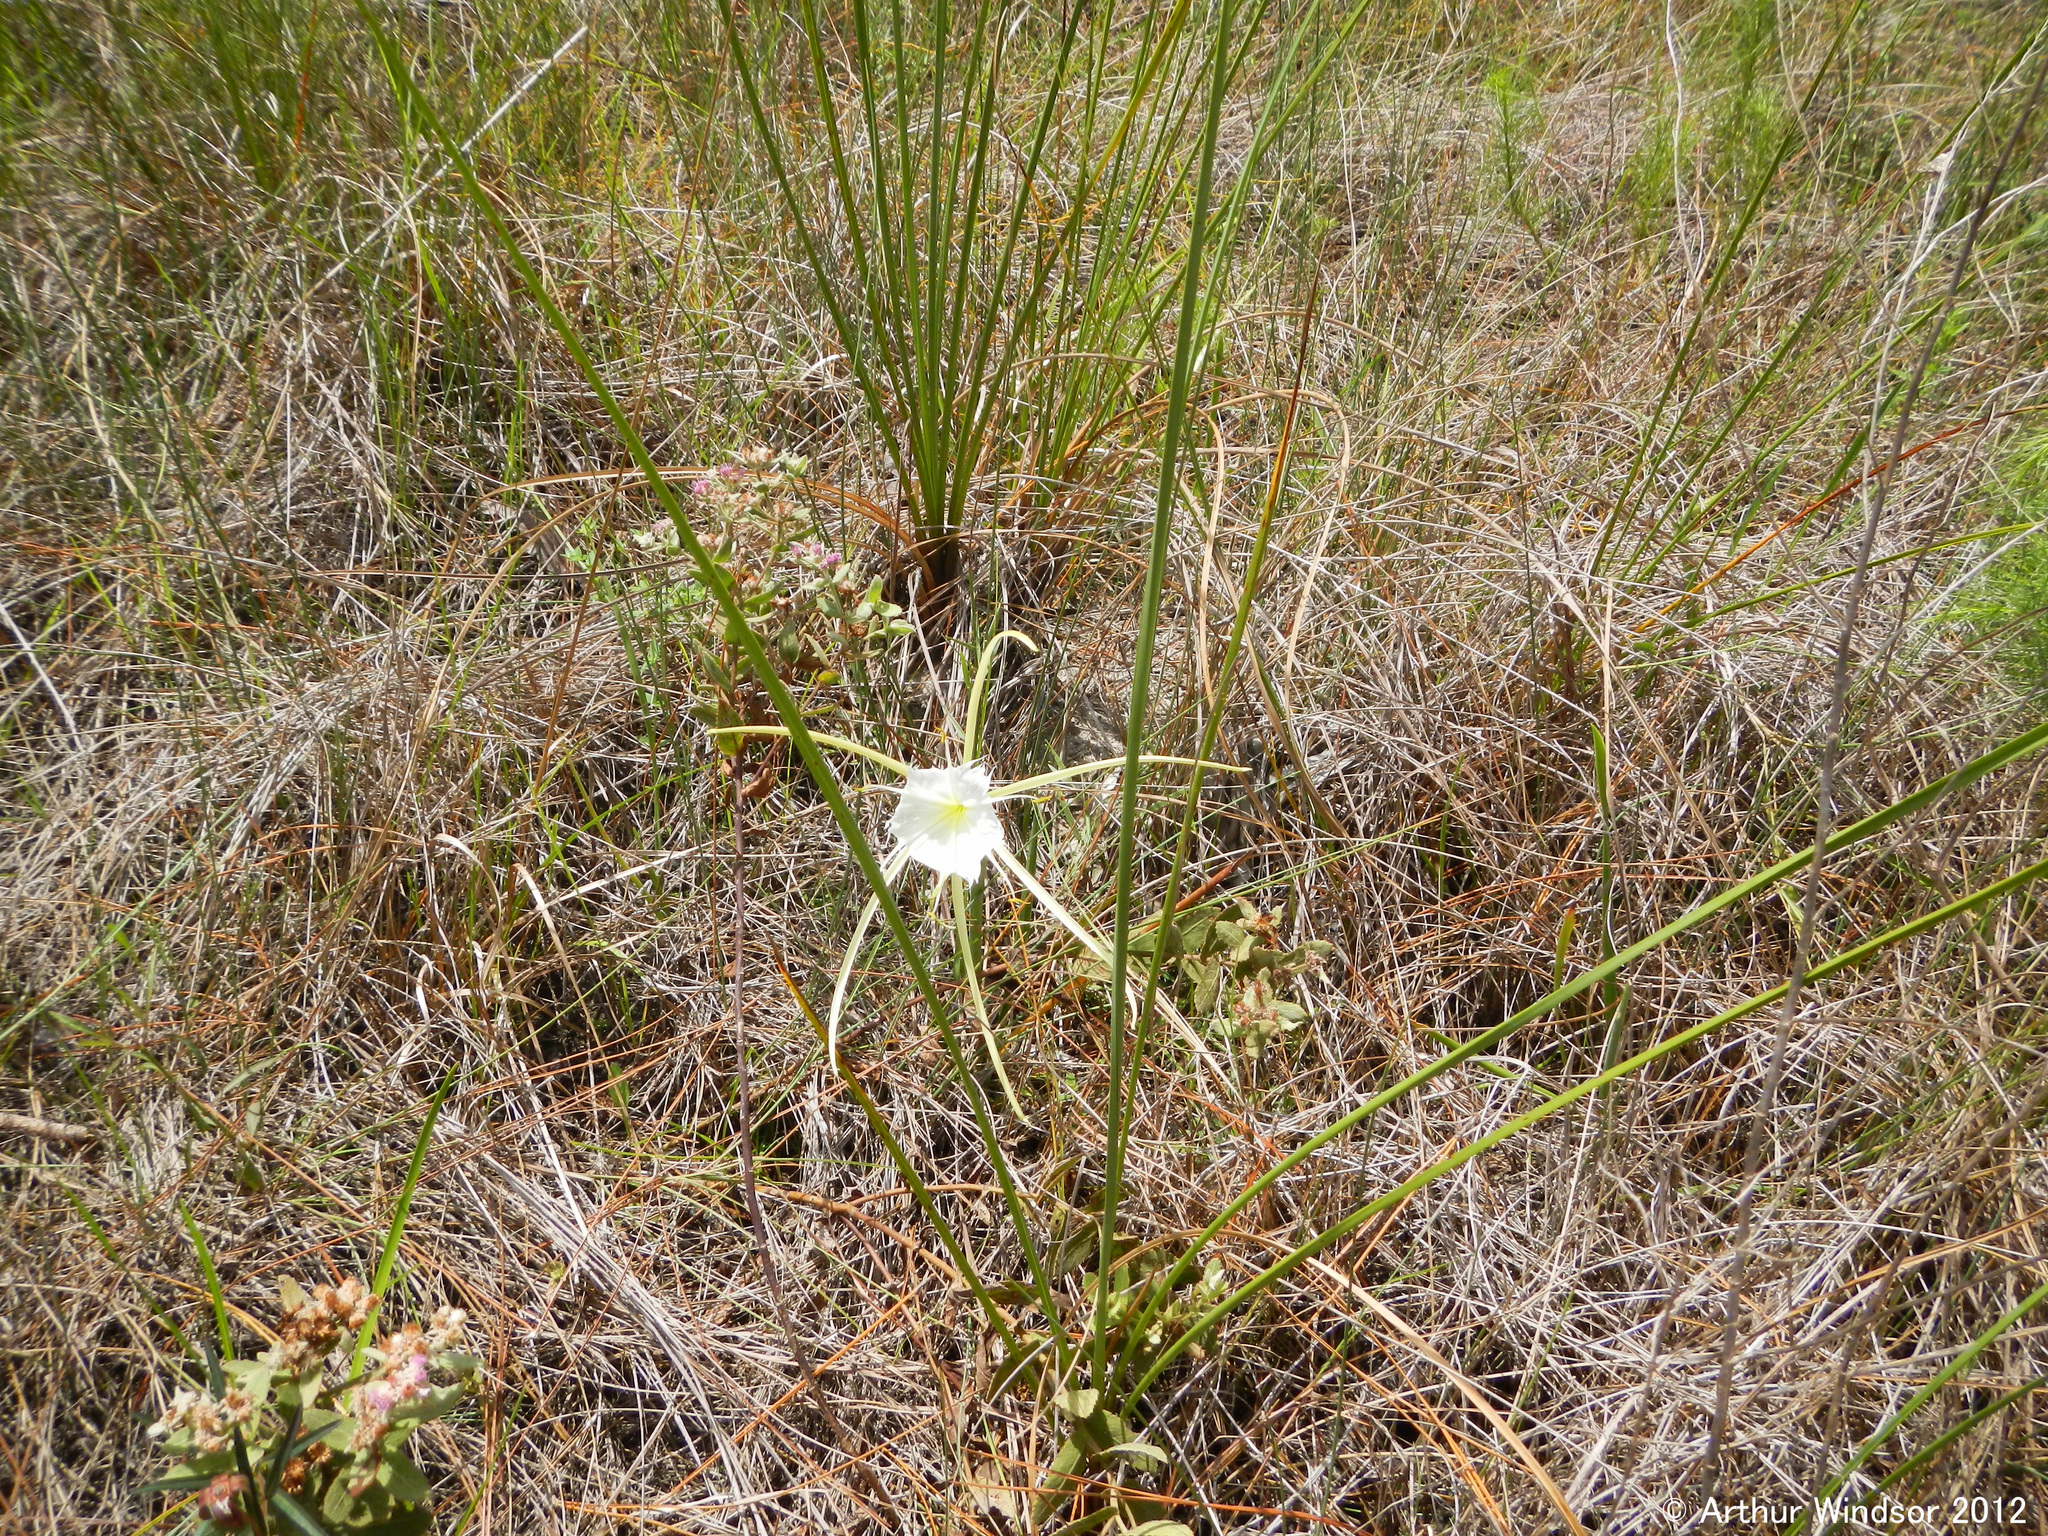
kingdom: Plantae
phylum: Tracheophyta
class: Liliopsida
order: Asparagales
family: Amaryllidaceae
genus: Hymenocallis
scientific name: Hymenocallis palmeri
